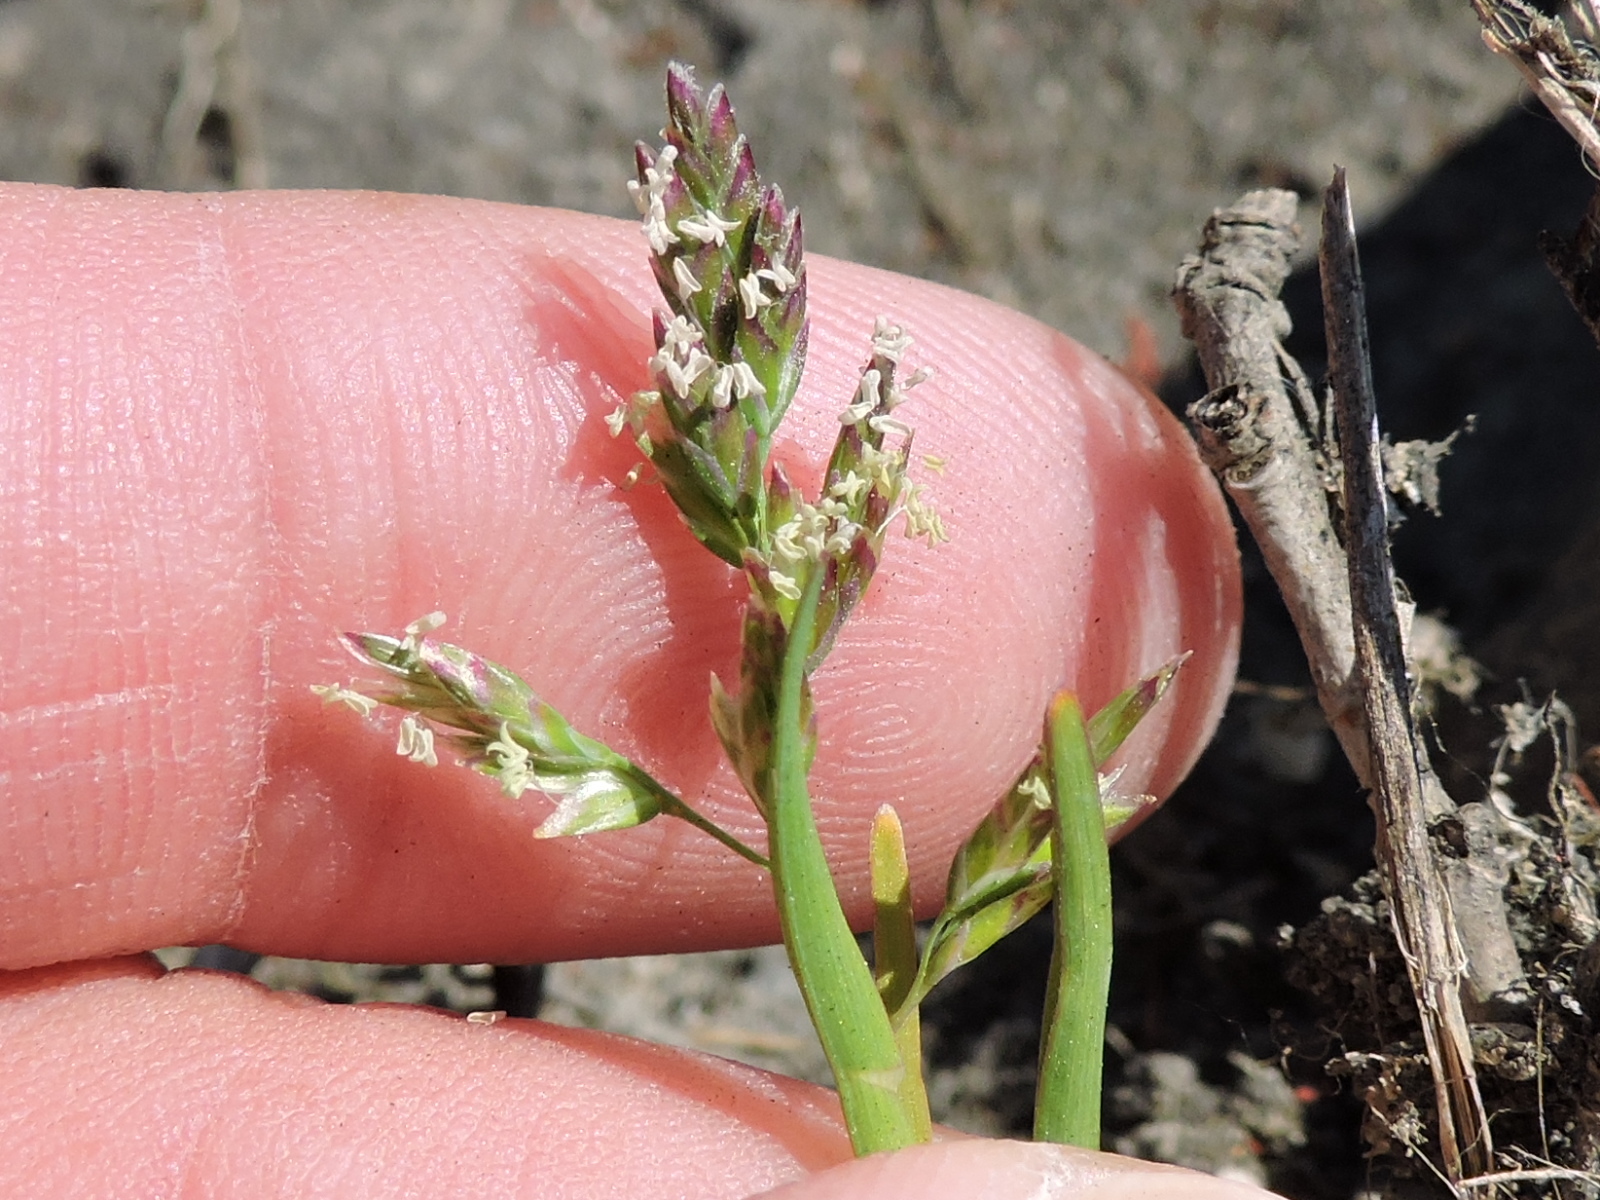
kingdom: Plantae
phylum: Tracheophyta
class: Liliopsida
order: Poales
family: Poaceae
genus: Poa
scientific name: Poa annua
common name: Annual bluegrass
